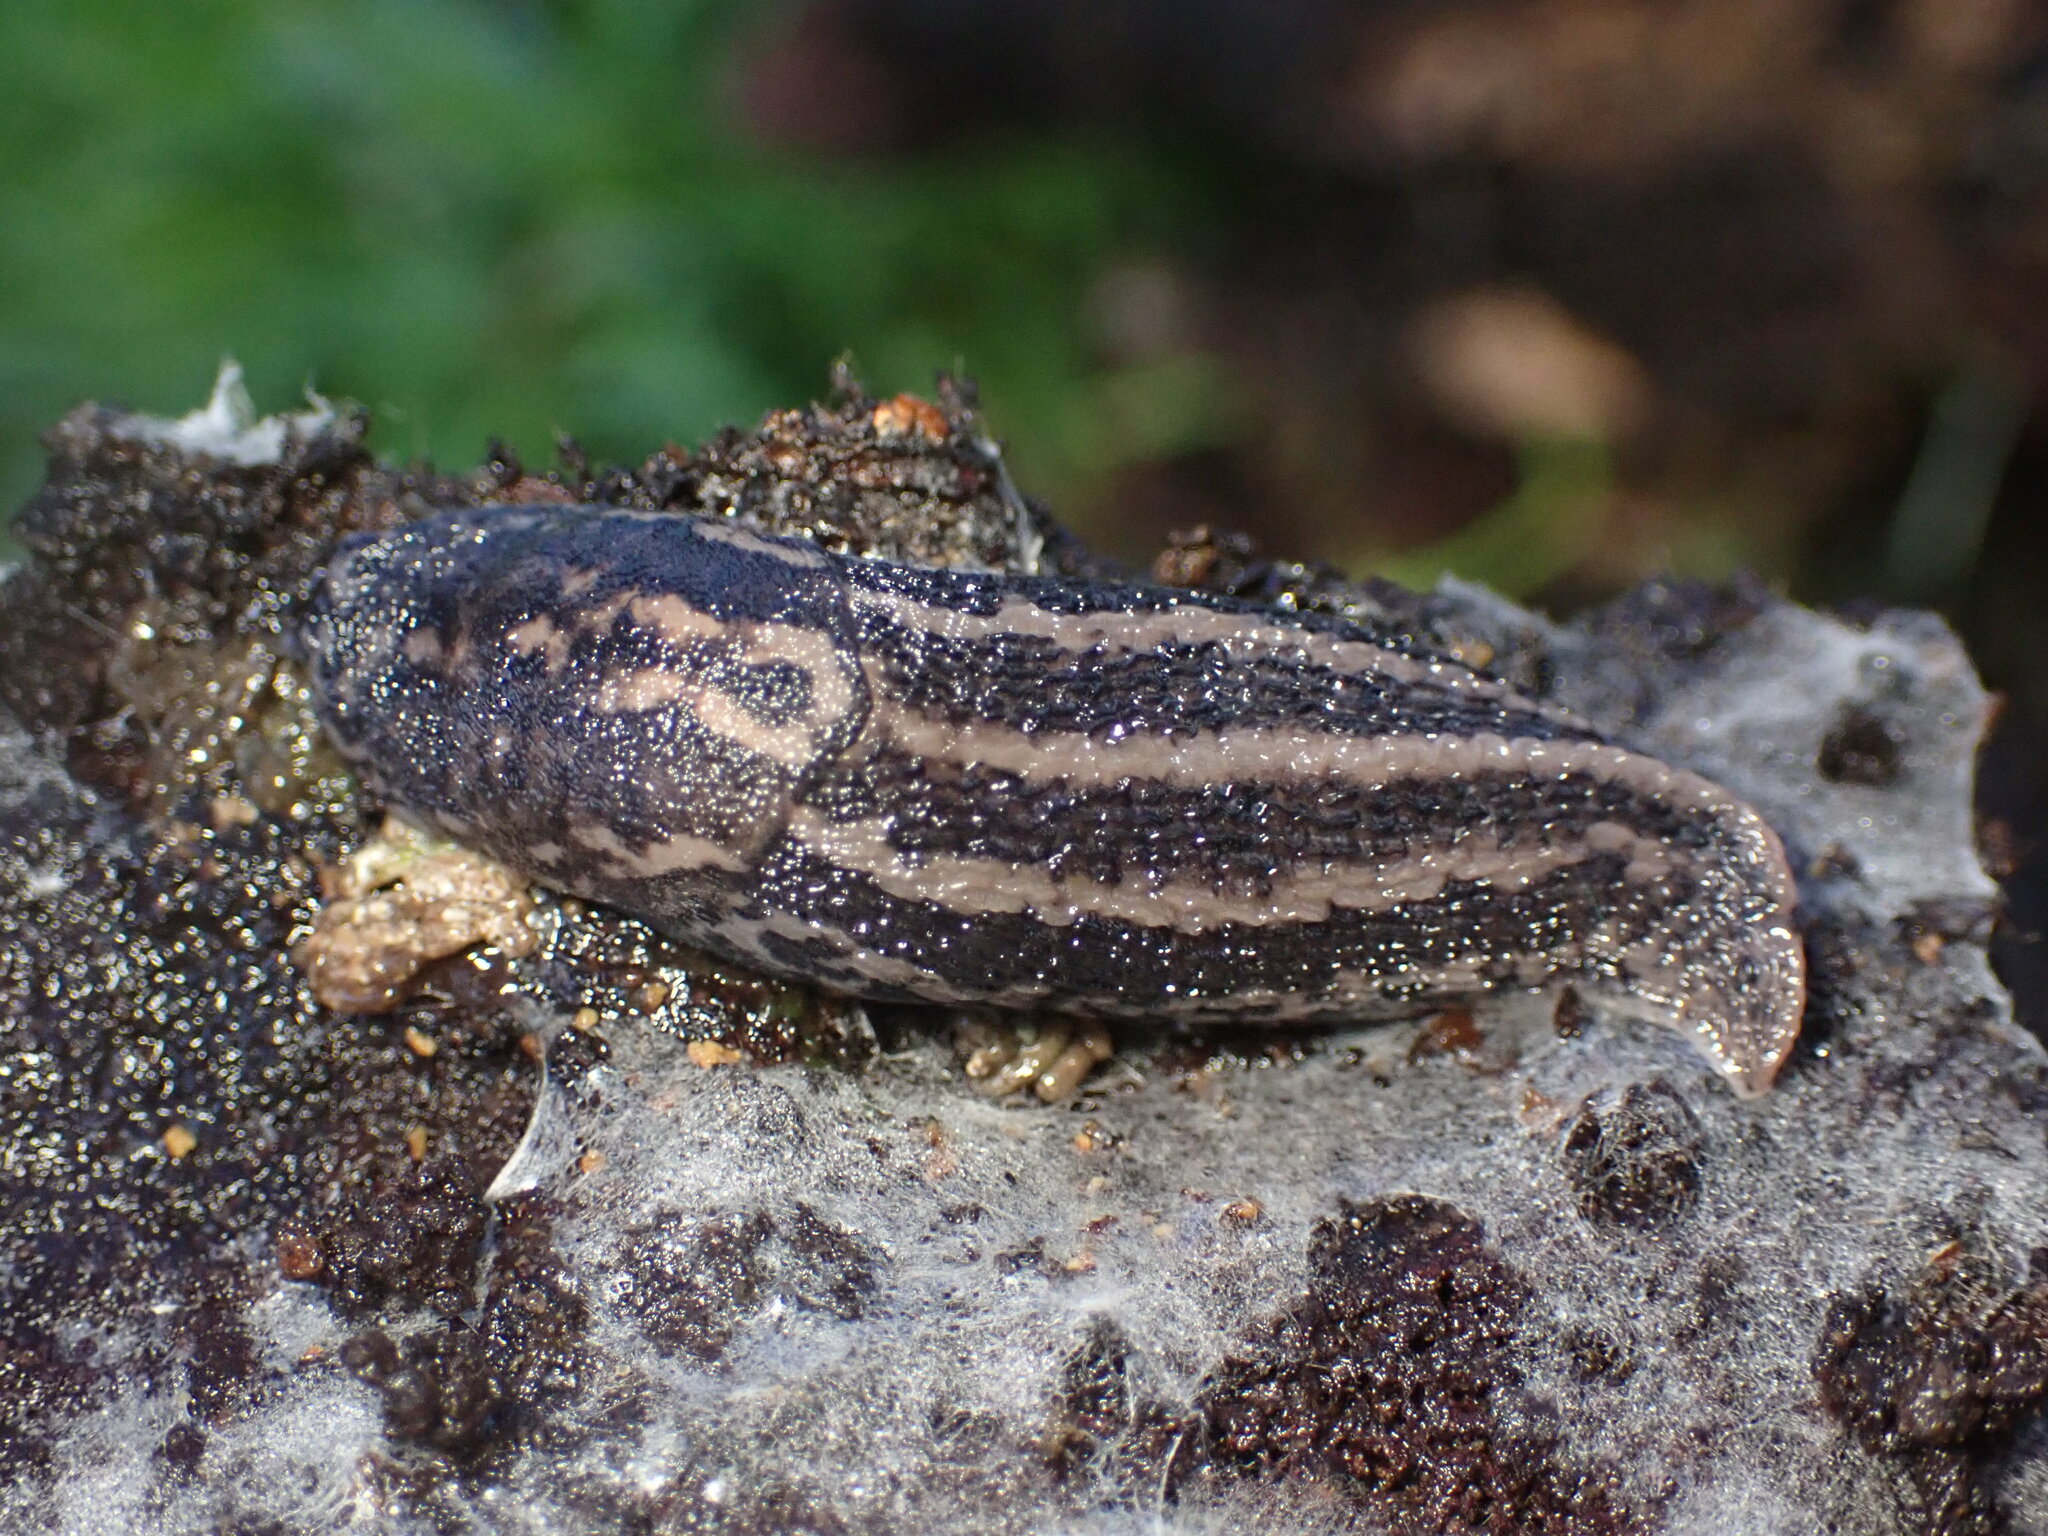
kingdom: Animalia
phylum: Mollusca
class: Gastropoda
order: Stylommatophora
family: Limacidae
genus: Limax
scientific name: Limax maximus
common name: Great grey slug
